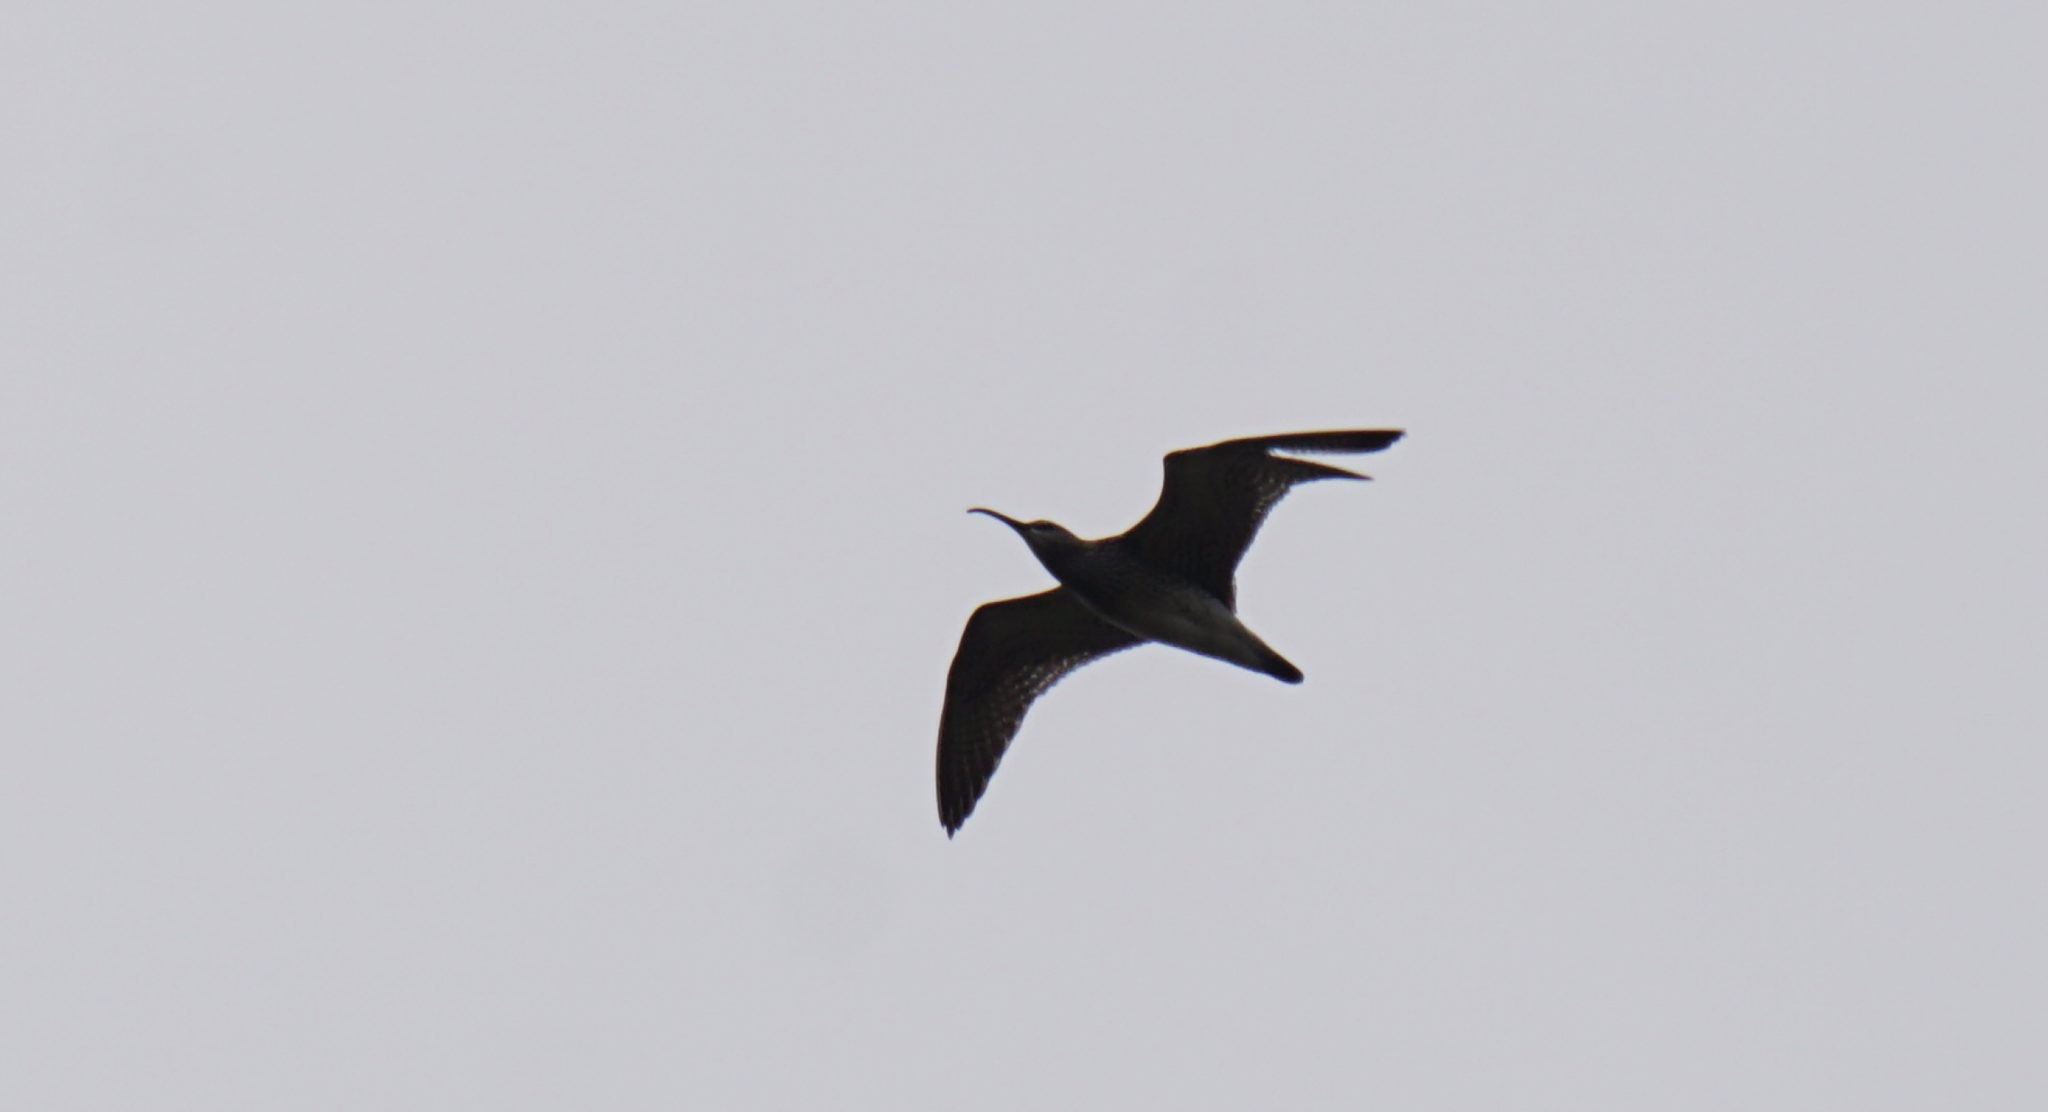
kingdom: Animalia
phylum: Chordata
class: Aves
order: Charadriiformes
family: Scolopacidae
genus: Numenius
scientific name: Numenius phaeopus
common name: Whimbrel
